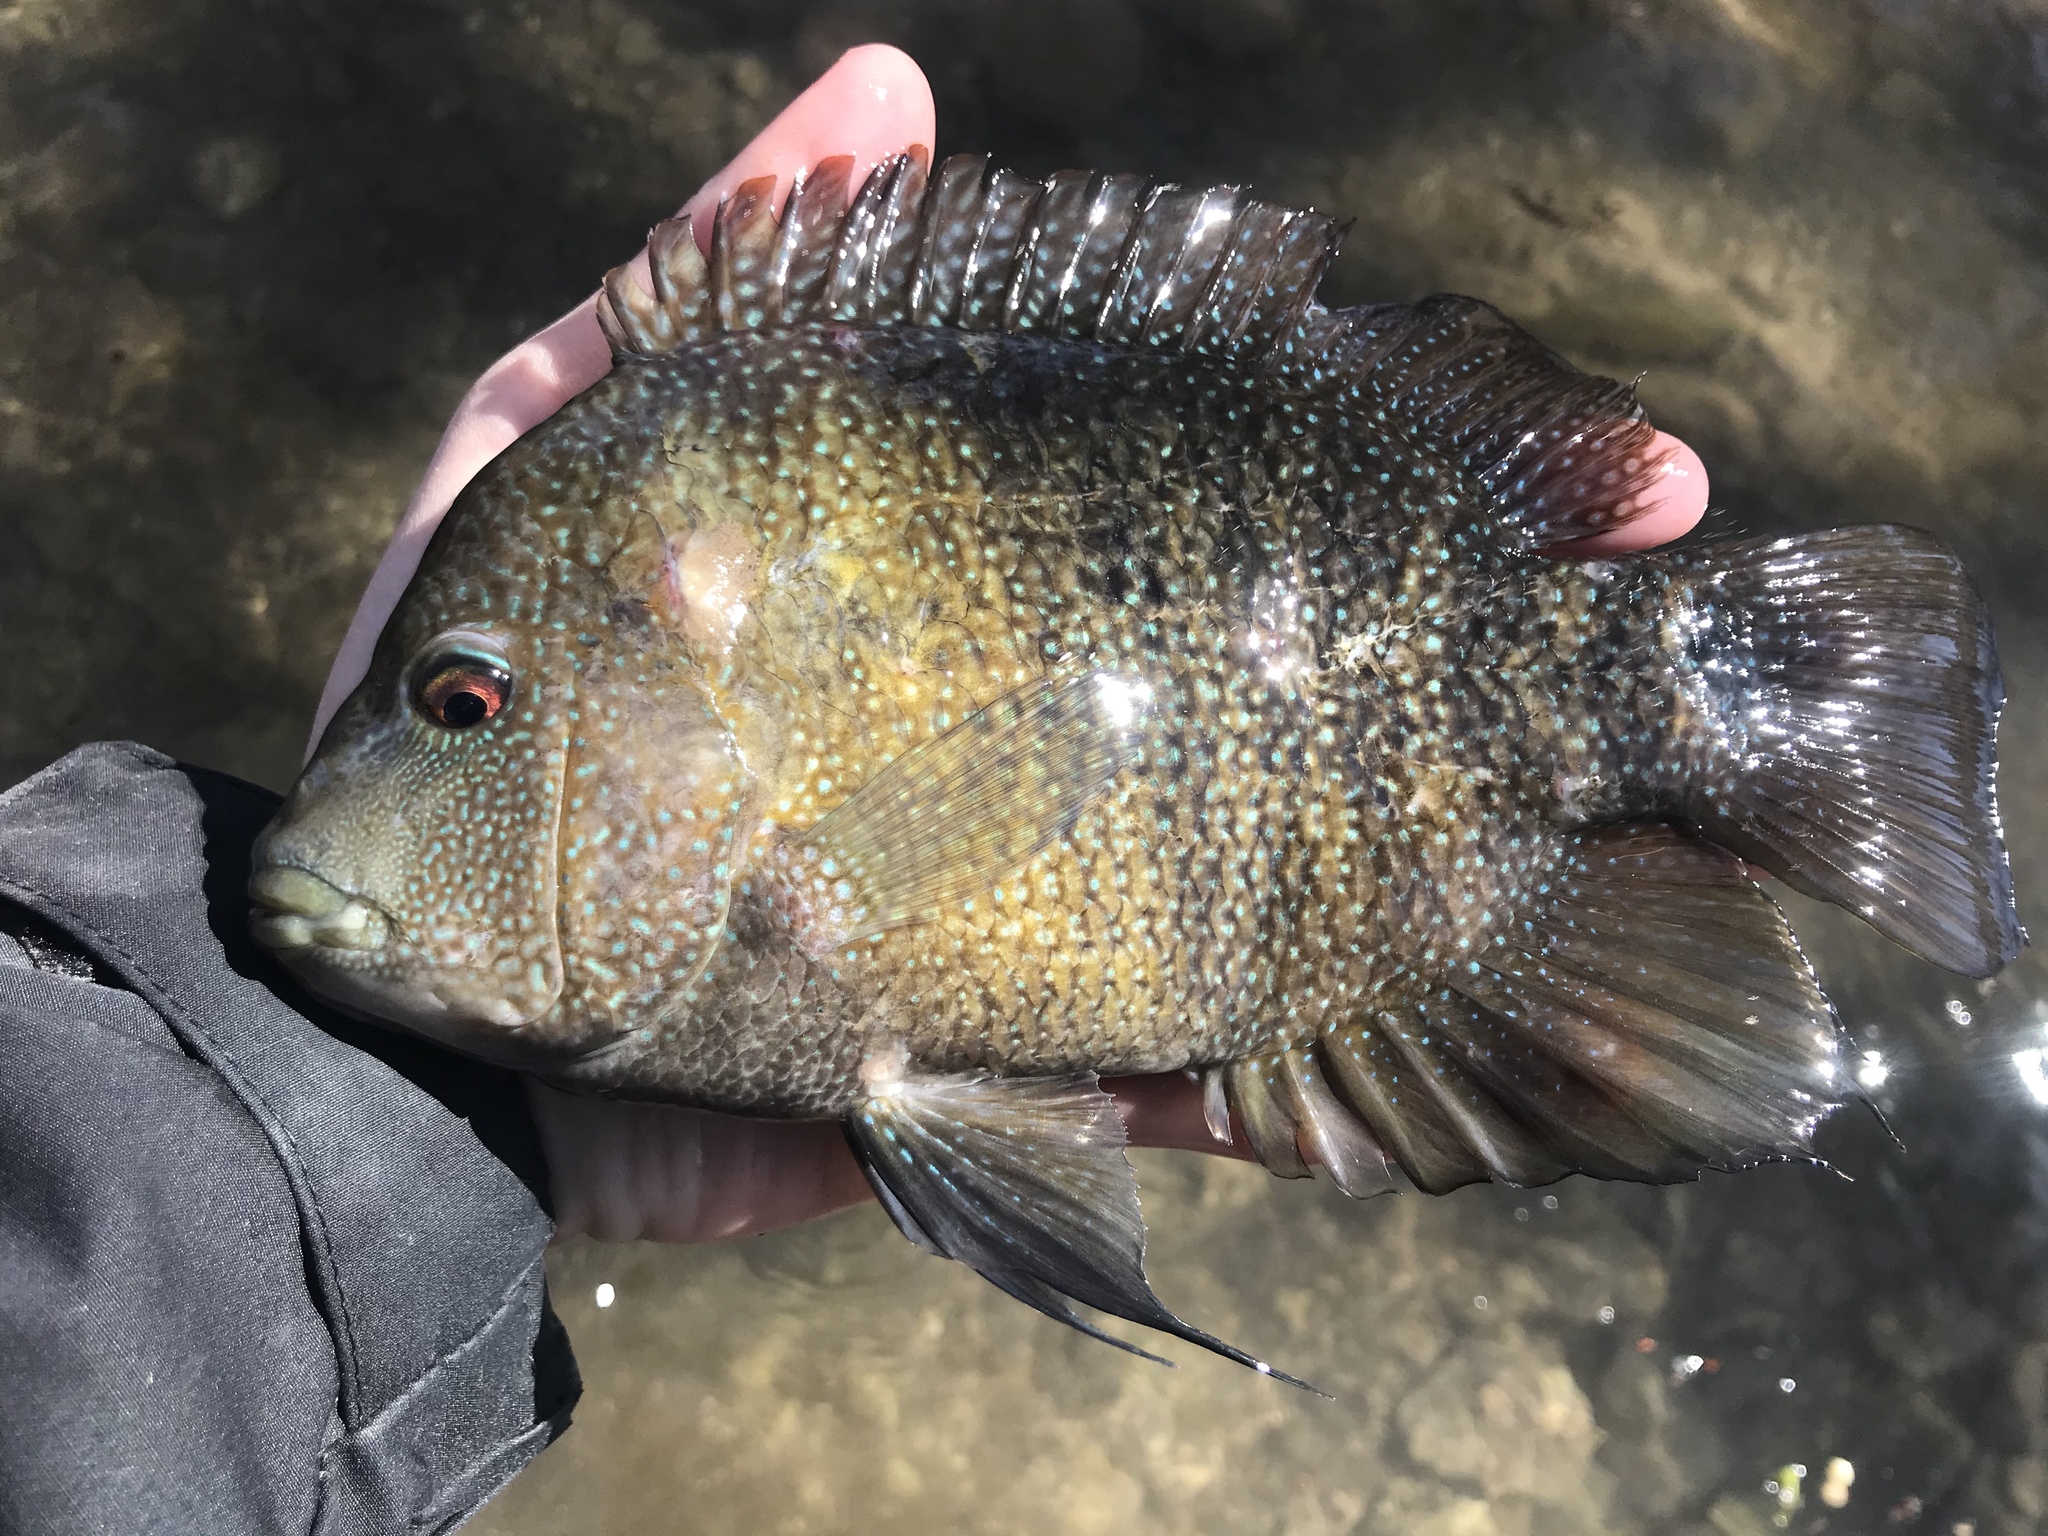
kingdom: Animalia
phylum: Chordata
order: Perciformes
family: Cichlidae
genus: Herichthys
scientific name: Herichthys cyanoguttatus
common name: Rio grande cichlid
